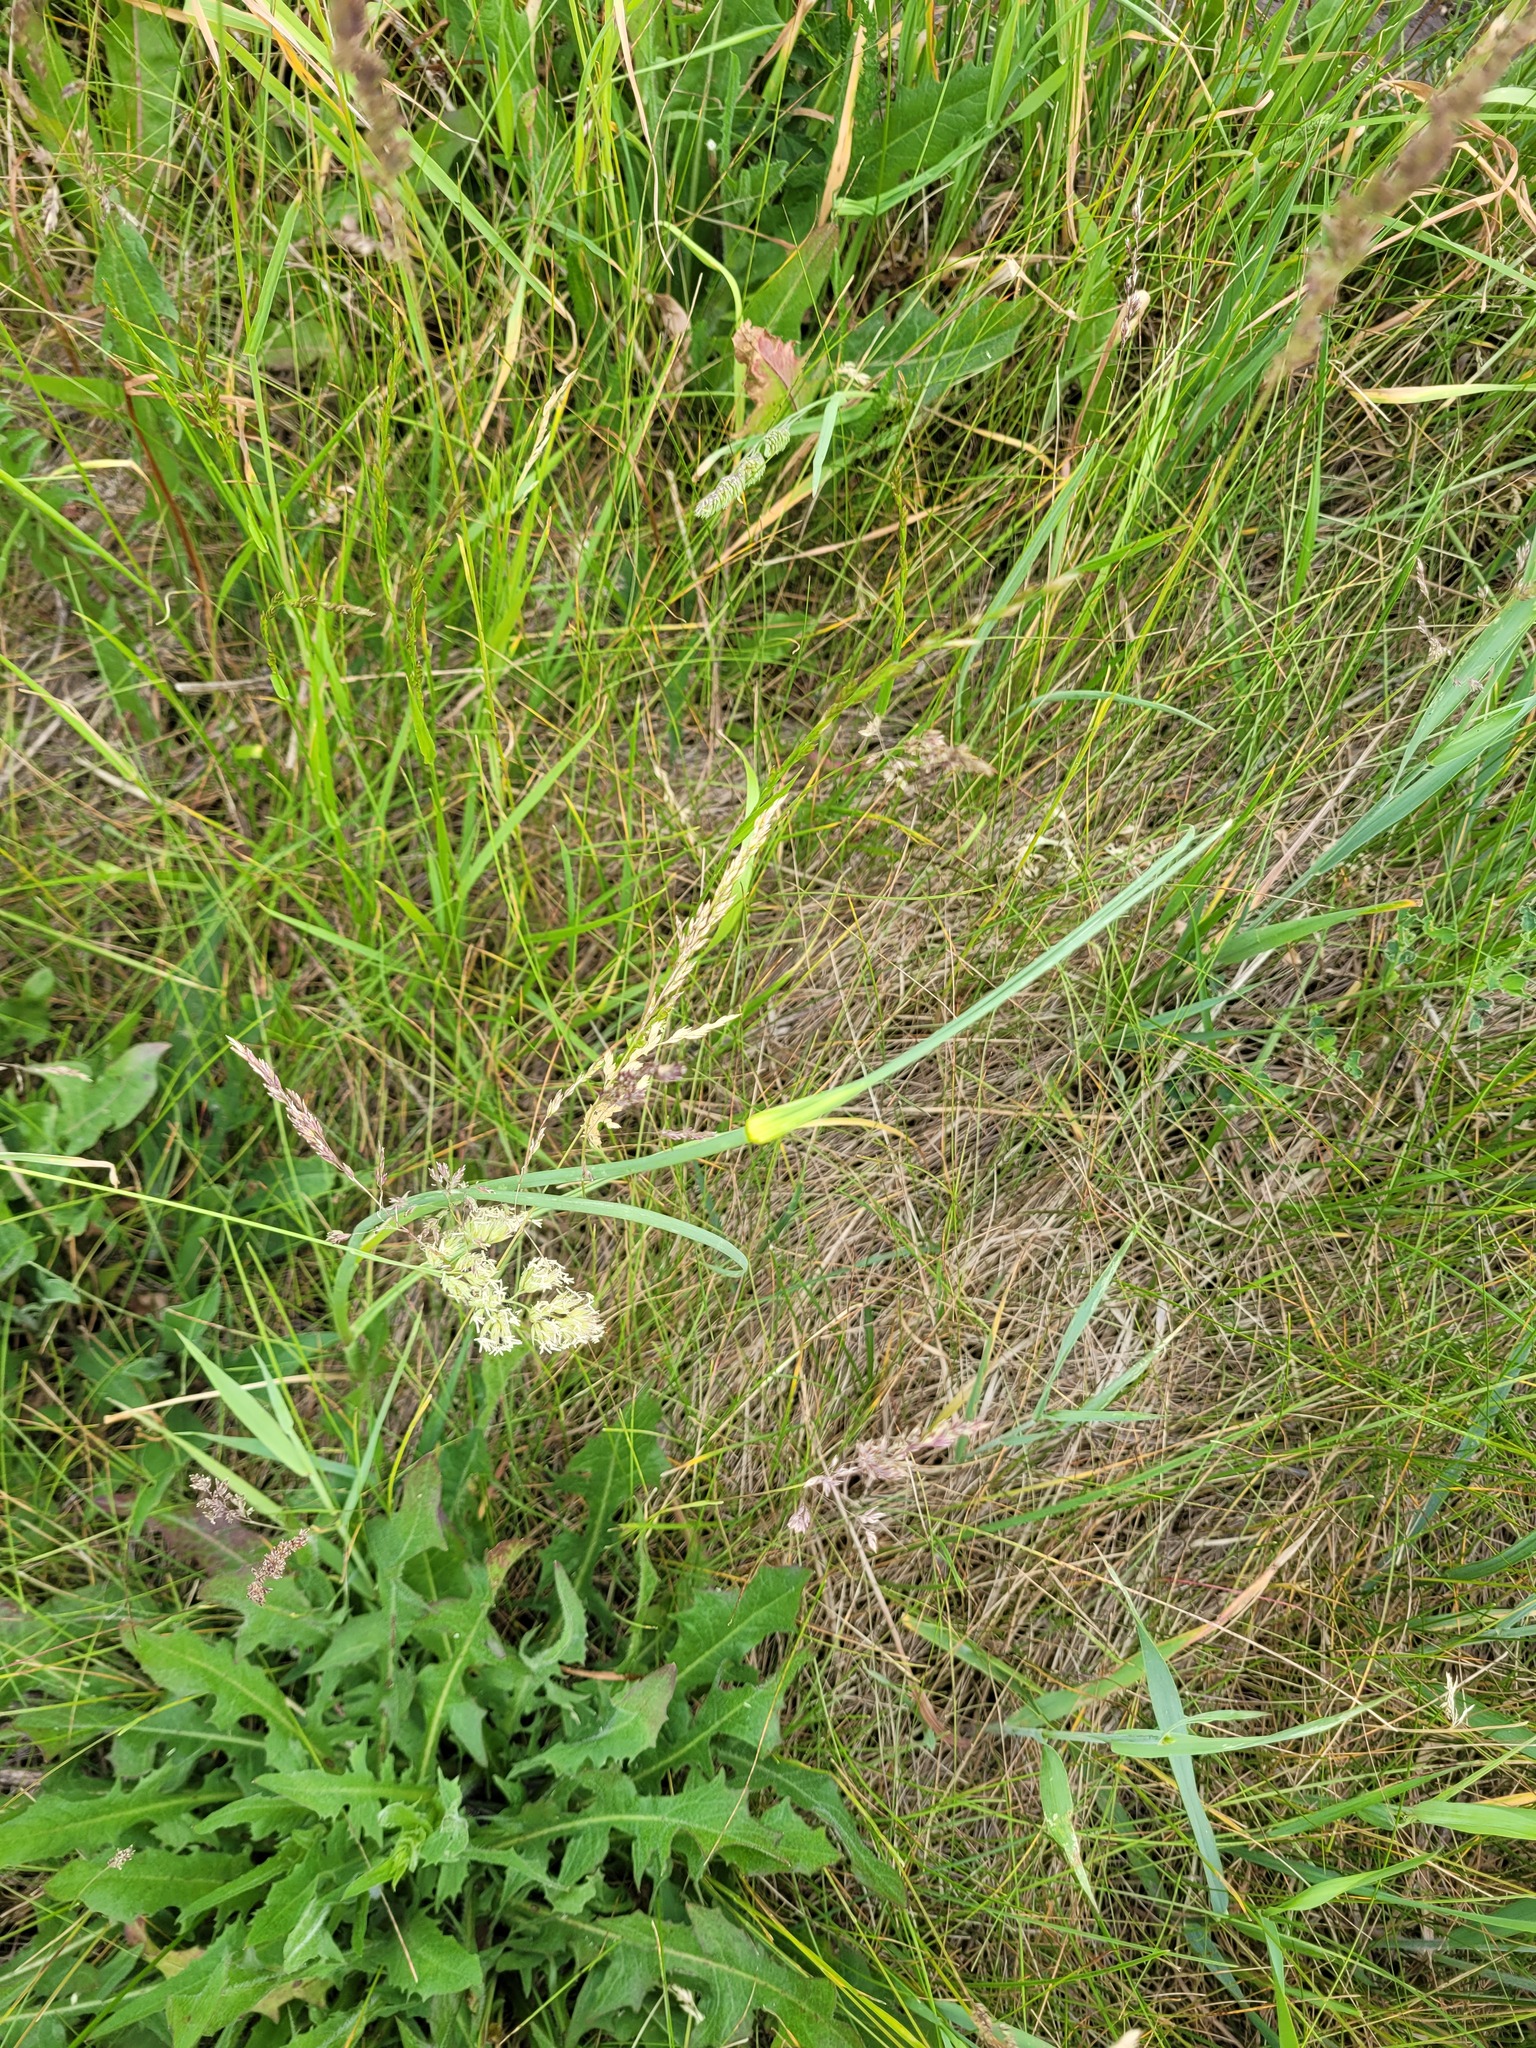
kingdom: Plantae
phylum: Tracheophyta
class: Liliopsida
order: Asparagales
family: Amaryllidaceae
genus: Allium
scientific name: Allium oleraceum
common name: Field garlic
